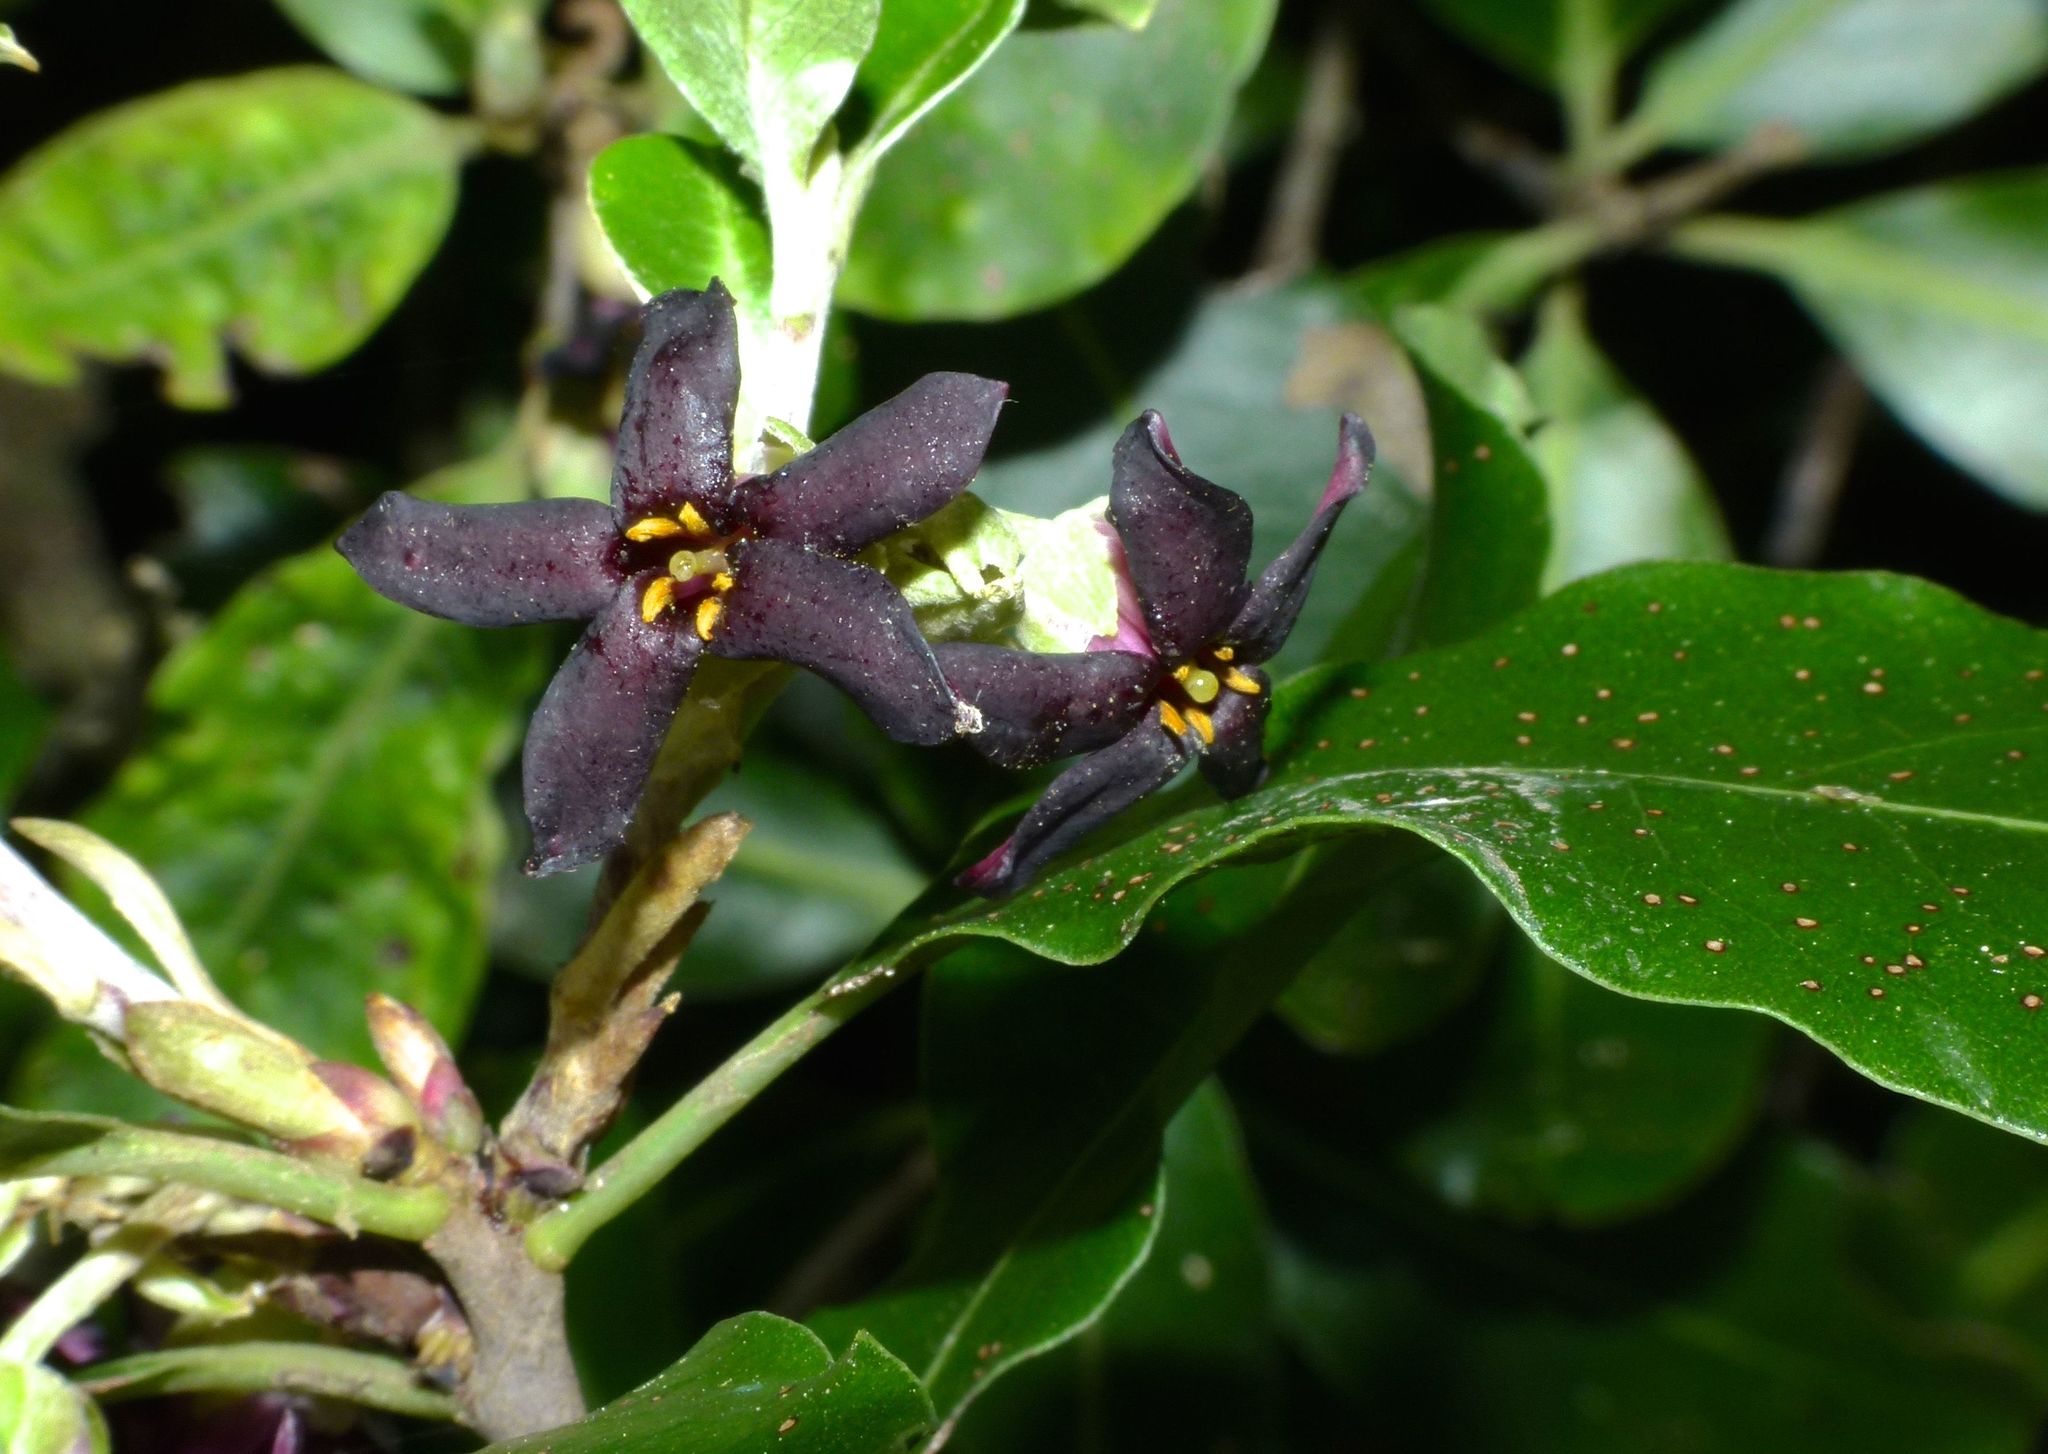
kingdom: Plantae
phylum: Tracheophyta
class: Magnoliopsida
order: Apiales
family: Pittosporaceae
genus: Pittosporum
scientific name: Pittosporum tenuifolium
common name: Kohuhu
